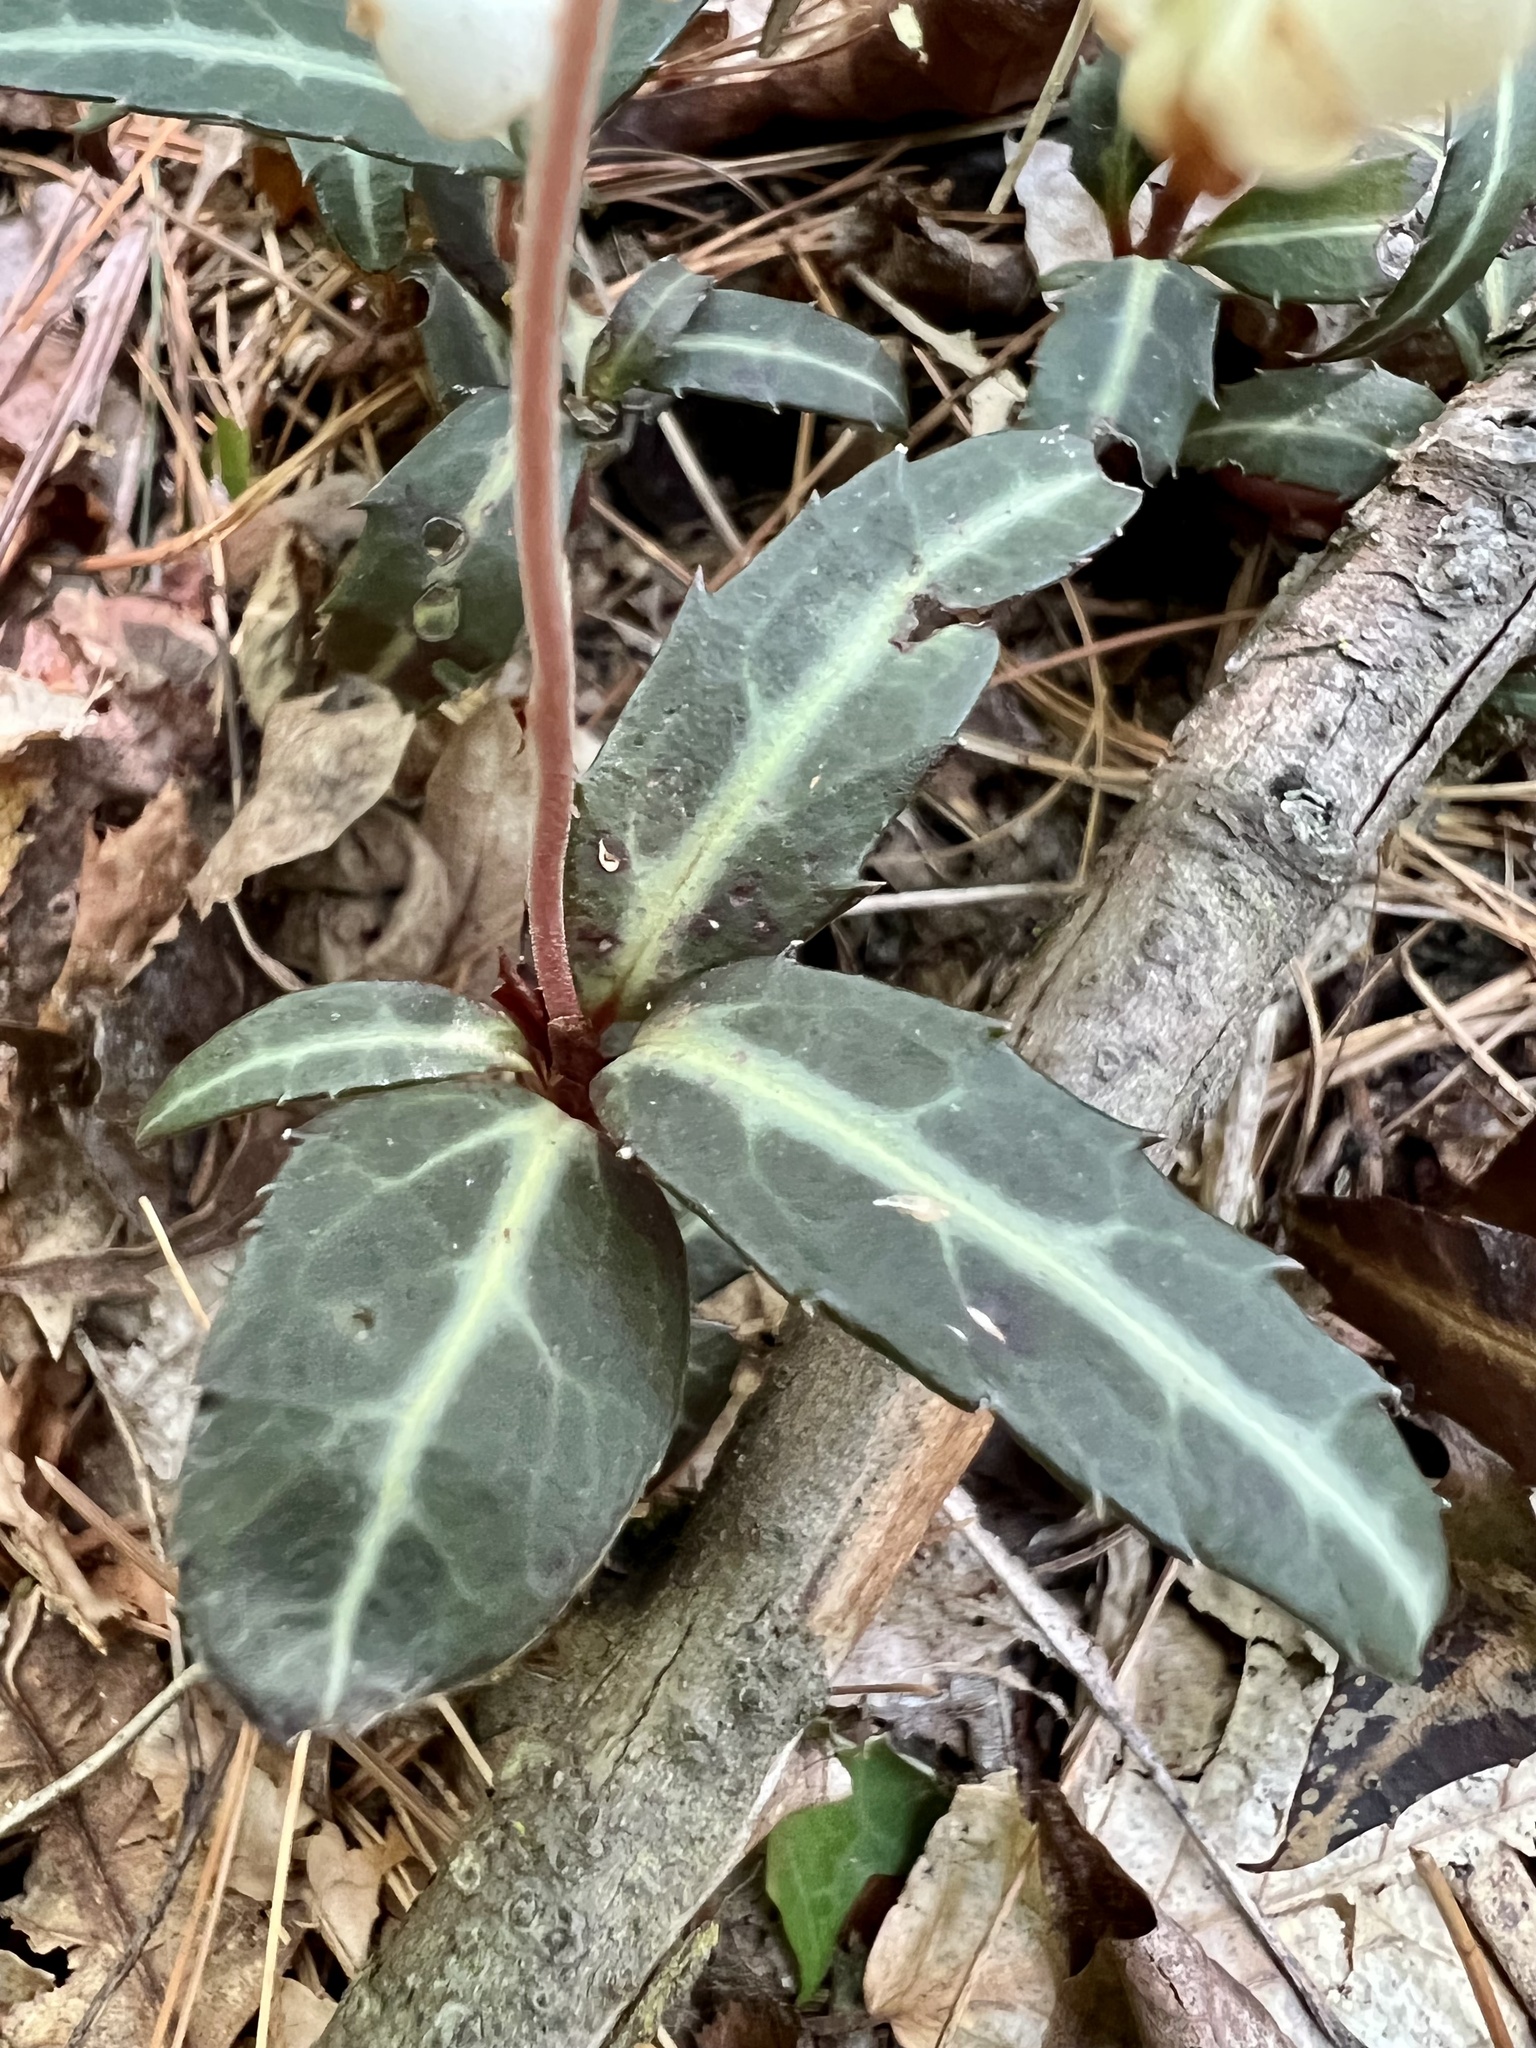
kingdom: Plantae
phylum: Tracheophyta
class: Magnoliopsida
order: Ericales
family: Ericaceae
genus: Chimaphila
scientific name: Chimaphila maculata
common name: Spotted pipsissewa
